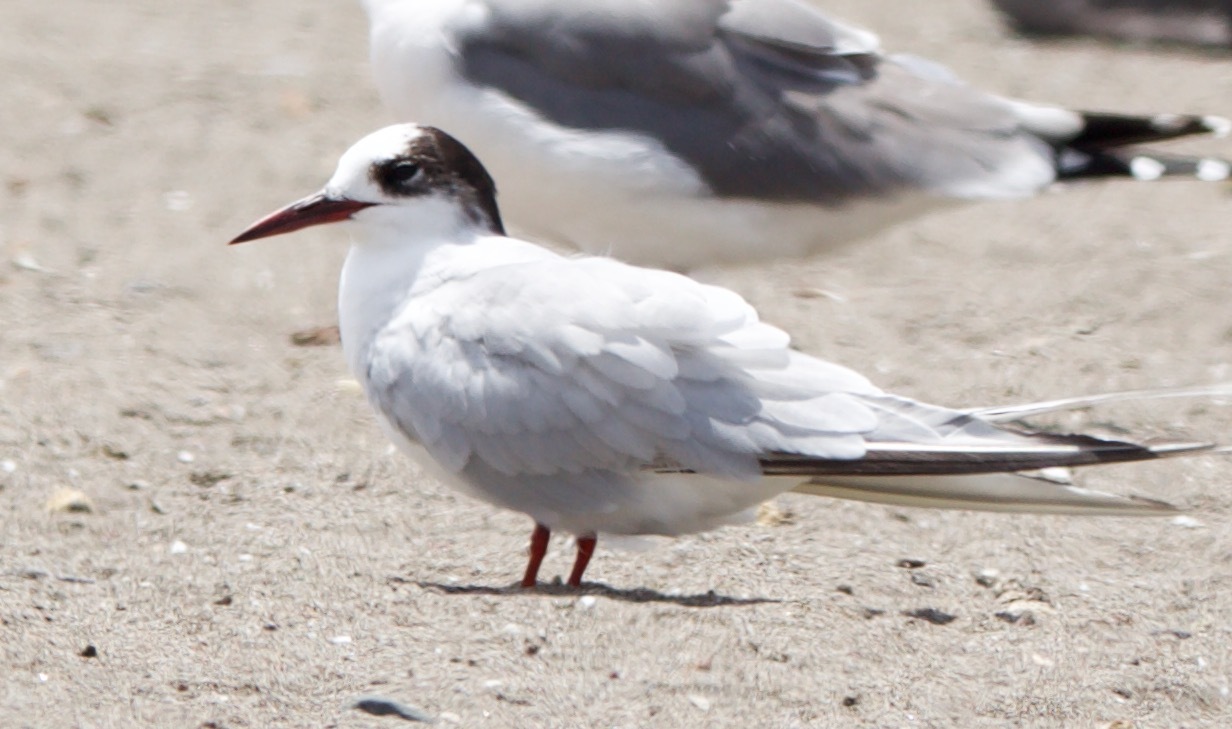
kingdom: Animalia
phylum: Chordata
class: Aves
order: Charadriiformes
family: Laridae
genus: Sterna
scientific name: Sterna hirundinacea
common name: South american tern
